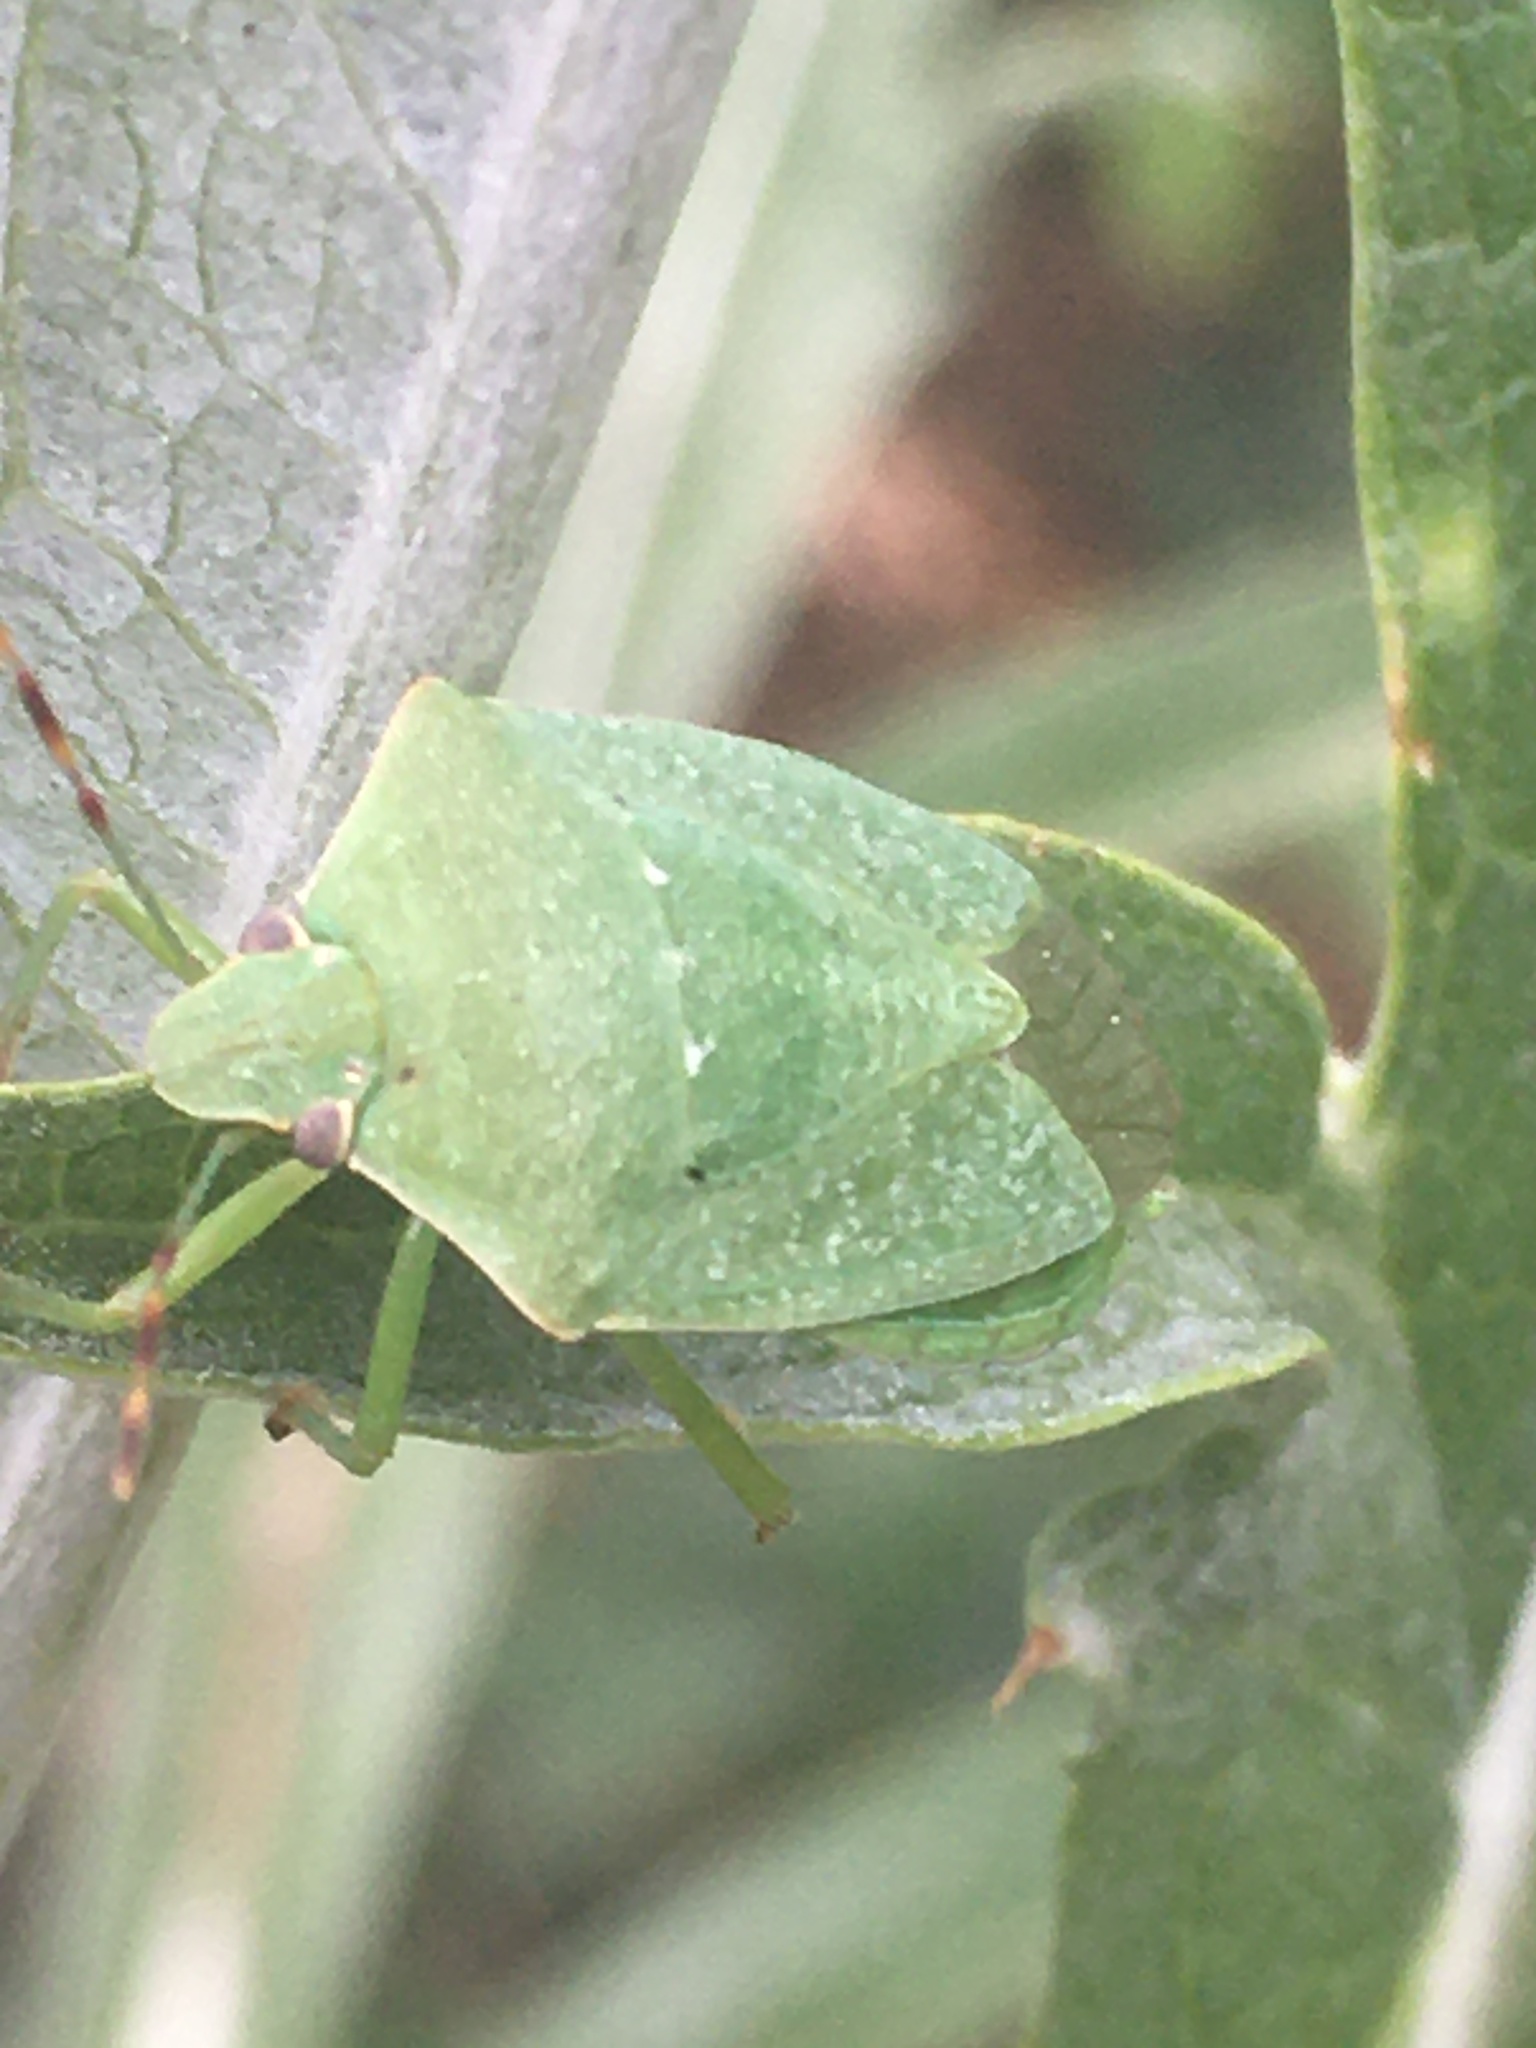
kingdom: Animalia
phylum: Arthropoda
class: Insecta
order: Hemiptera
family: Pentatomidae
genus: Nezara
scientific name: Nezara viridula
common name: Southern green stink bug
